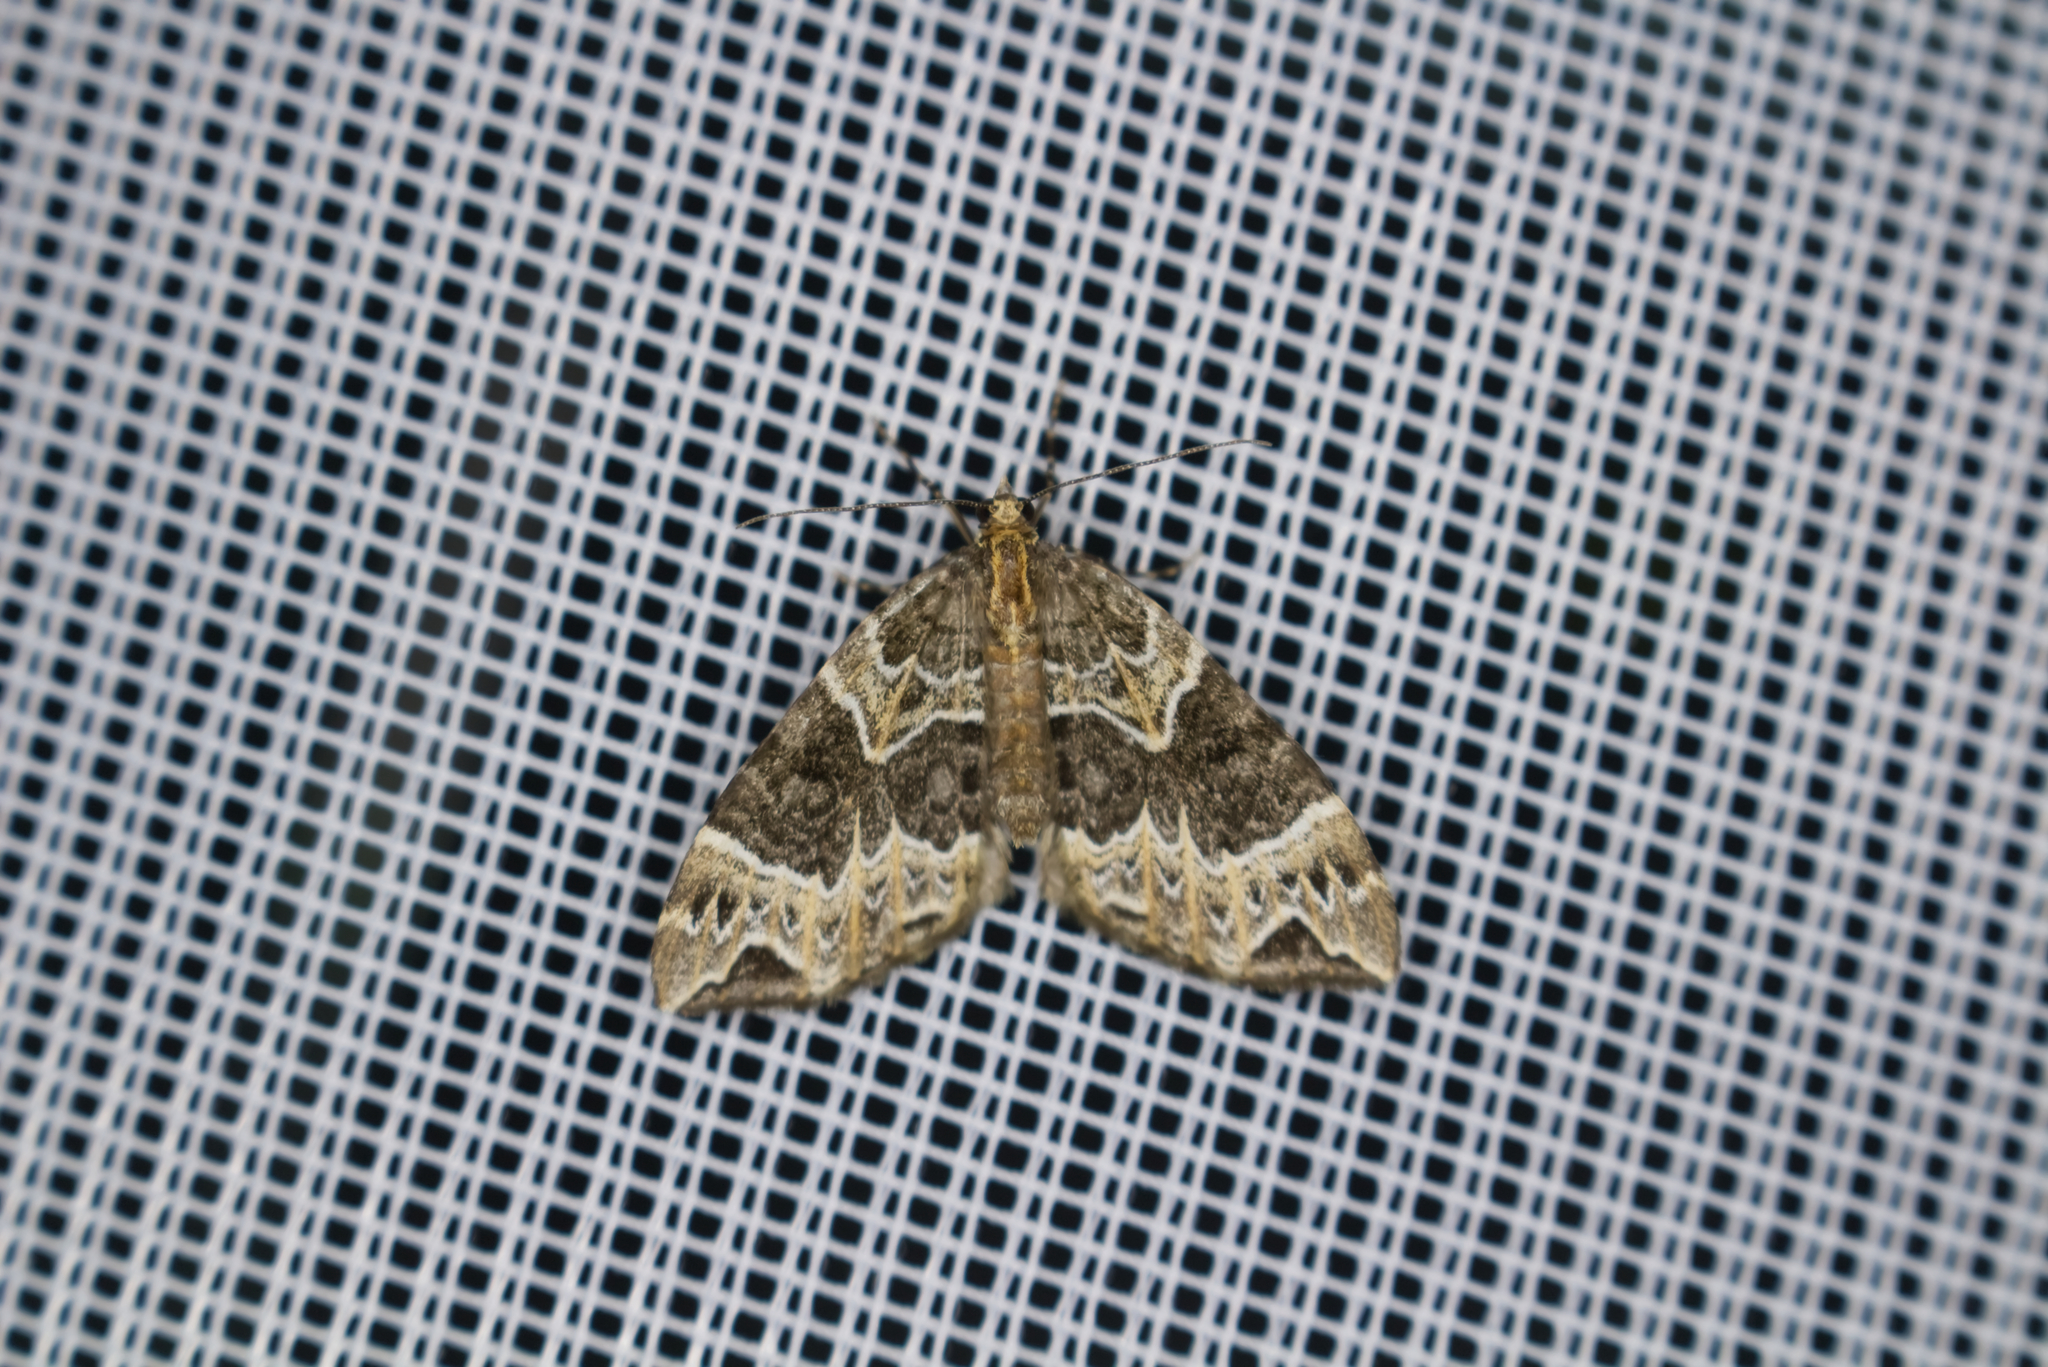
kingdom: Animalia
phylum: Arthropoda
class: Insecta
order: Lepidoptera
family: Geometridae
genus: Ecliptopera
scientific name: Ecliptopera silaceata
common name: Small phoenix
